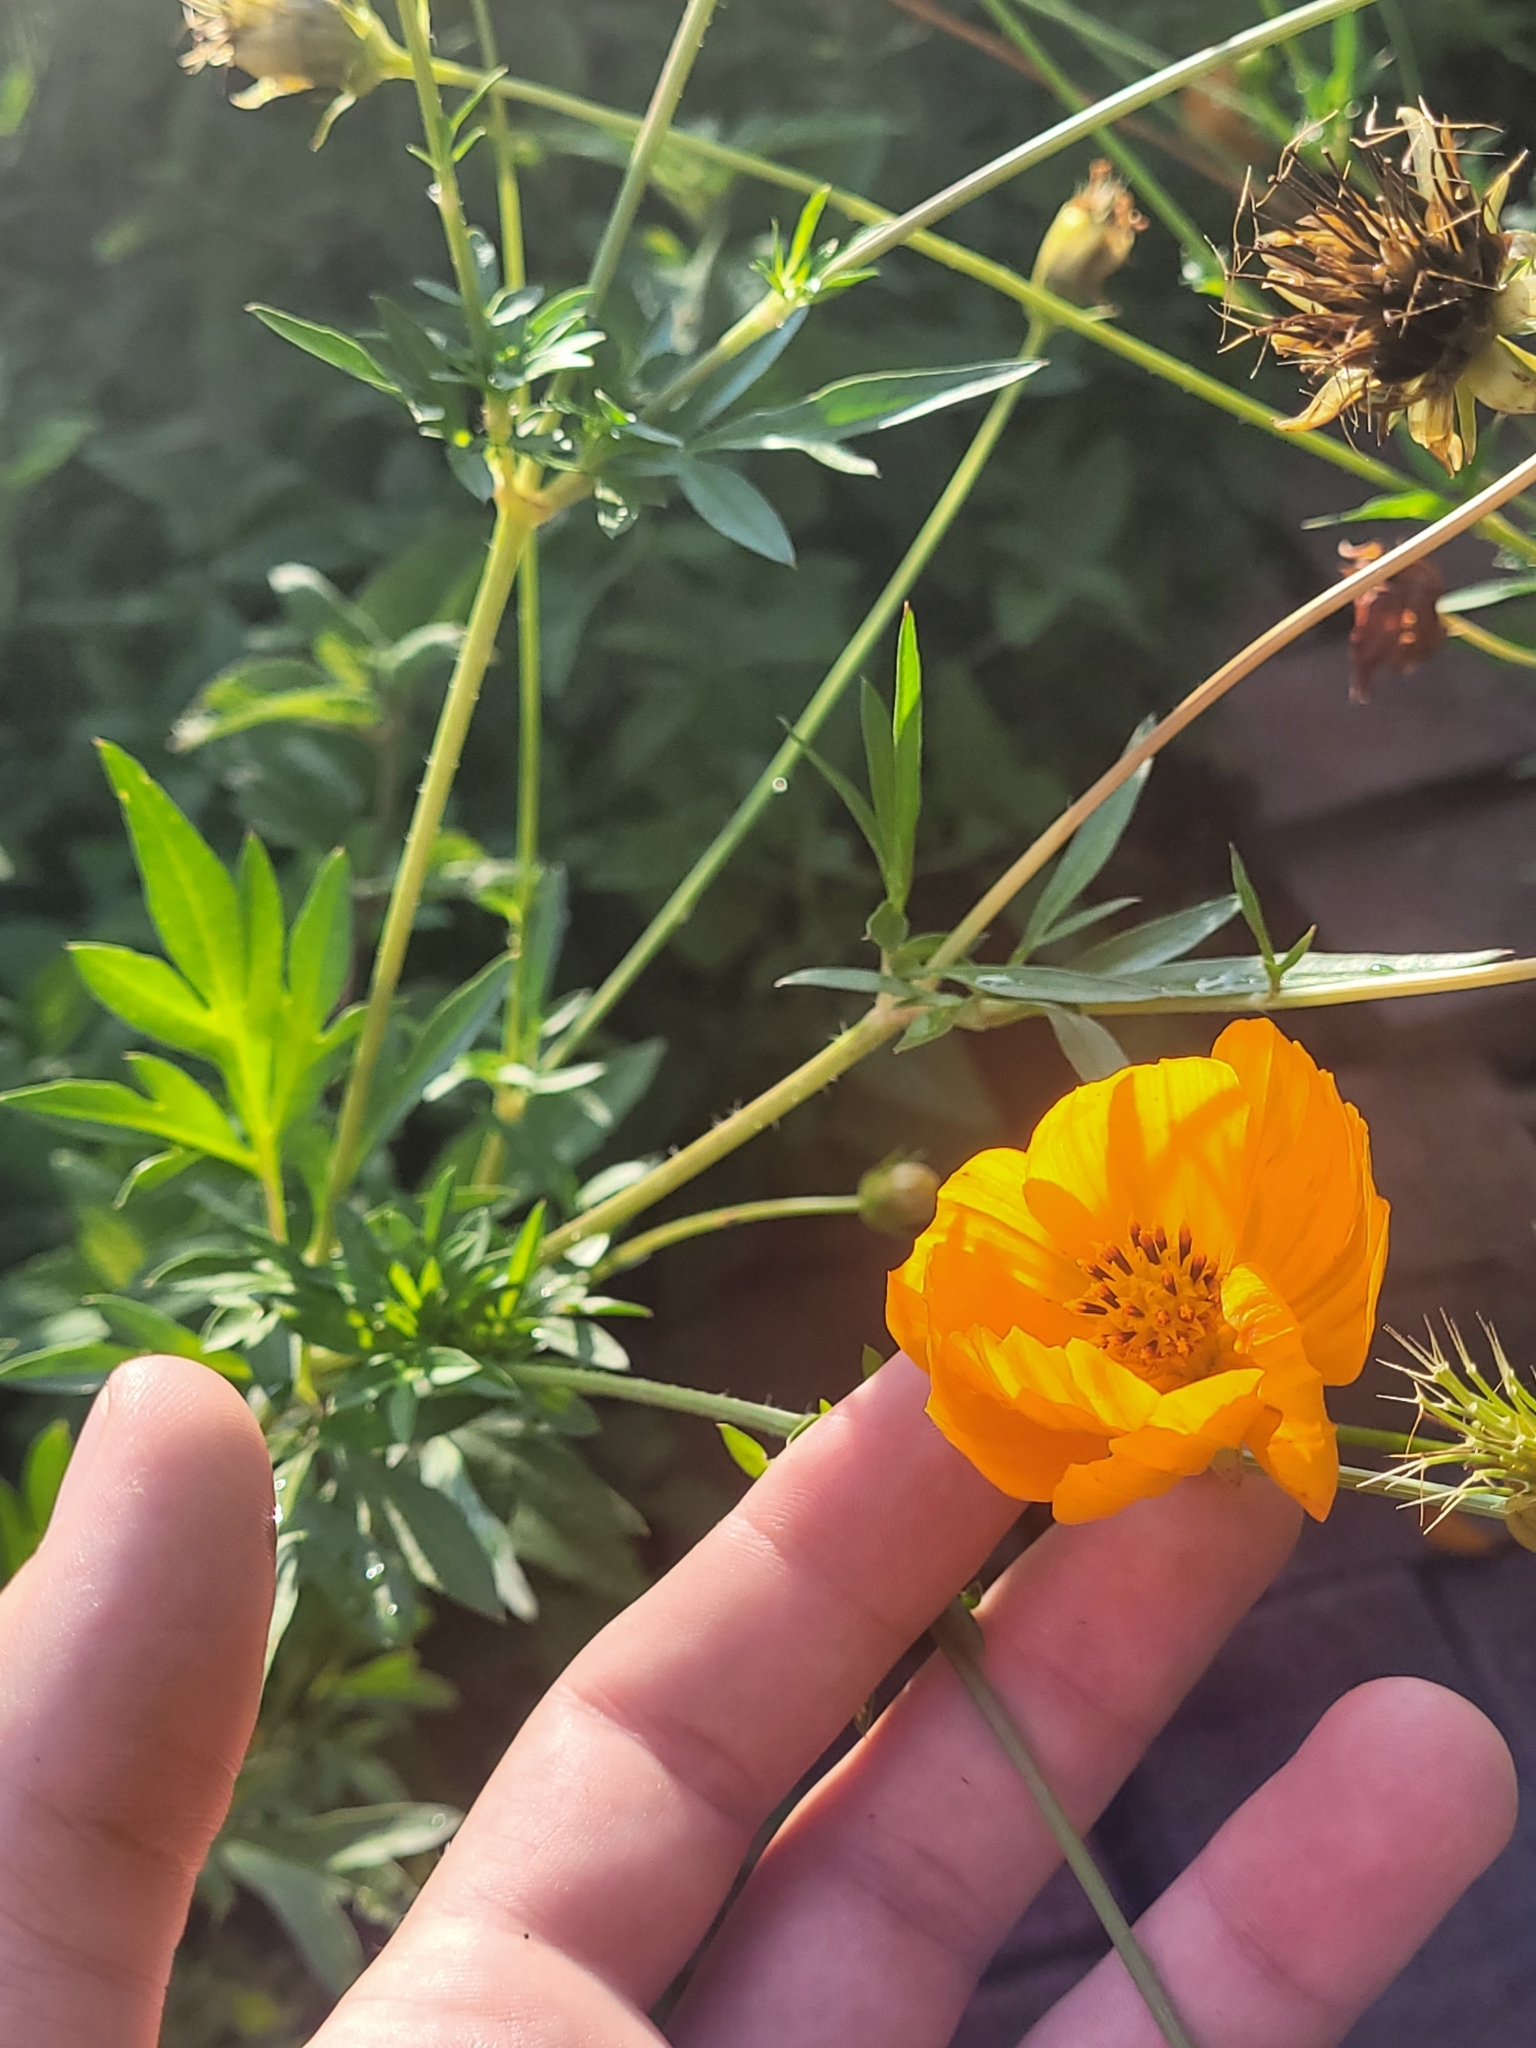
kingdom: Plantae
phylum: Tracheophyta
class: Magnoliopsida
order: Asterales
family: Asteraceae
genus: Cosmos
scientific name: Cosmos sulphureus
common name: Sulphur cosmos
